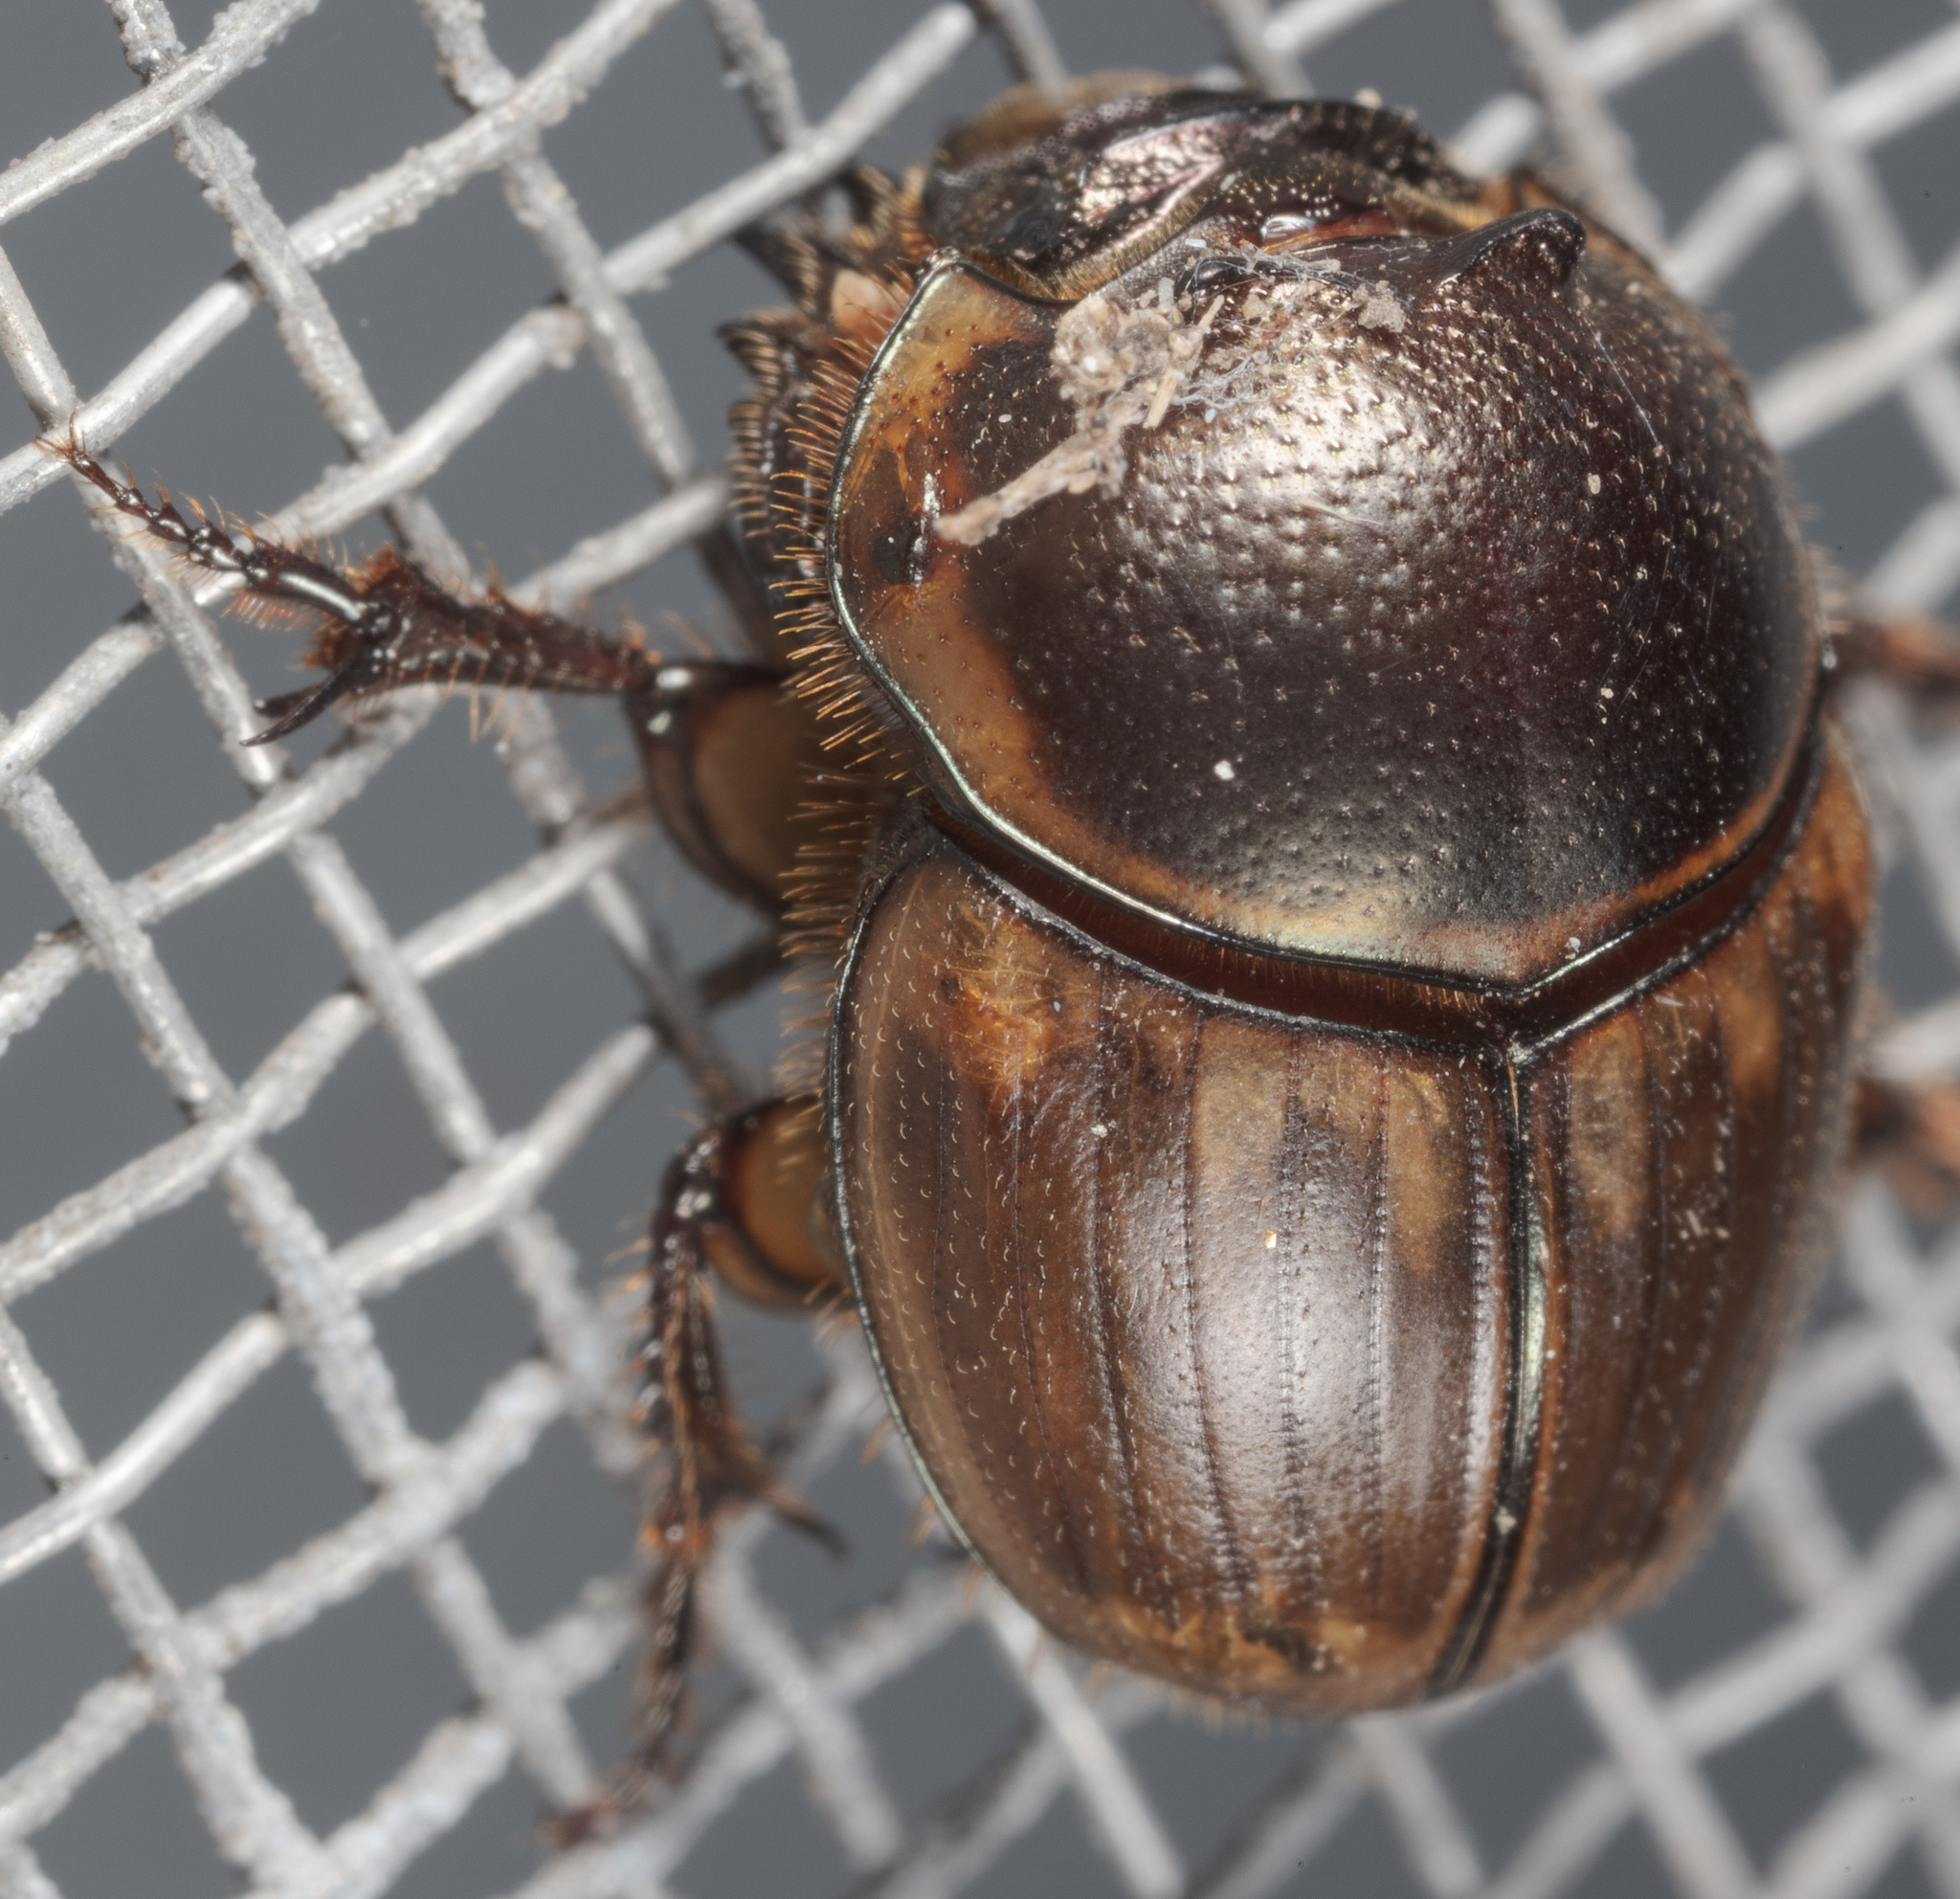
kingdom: Animalia
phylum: Arthropoda
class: Insecta
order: Coleoptera
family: Scarabaeidae
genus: Digitonthophagus
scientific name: Digitonthophagus gazella
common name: Brown dung beetle
